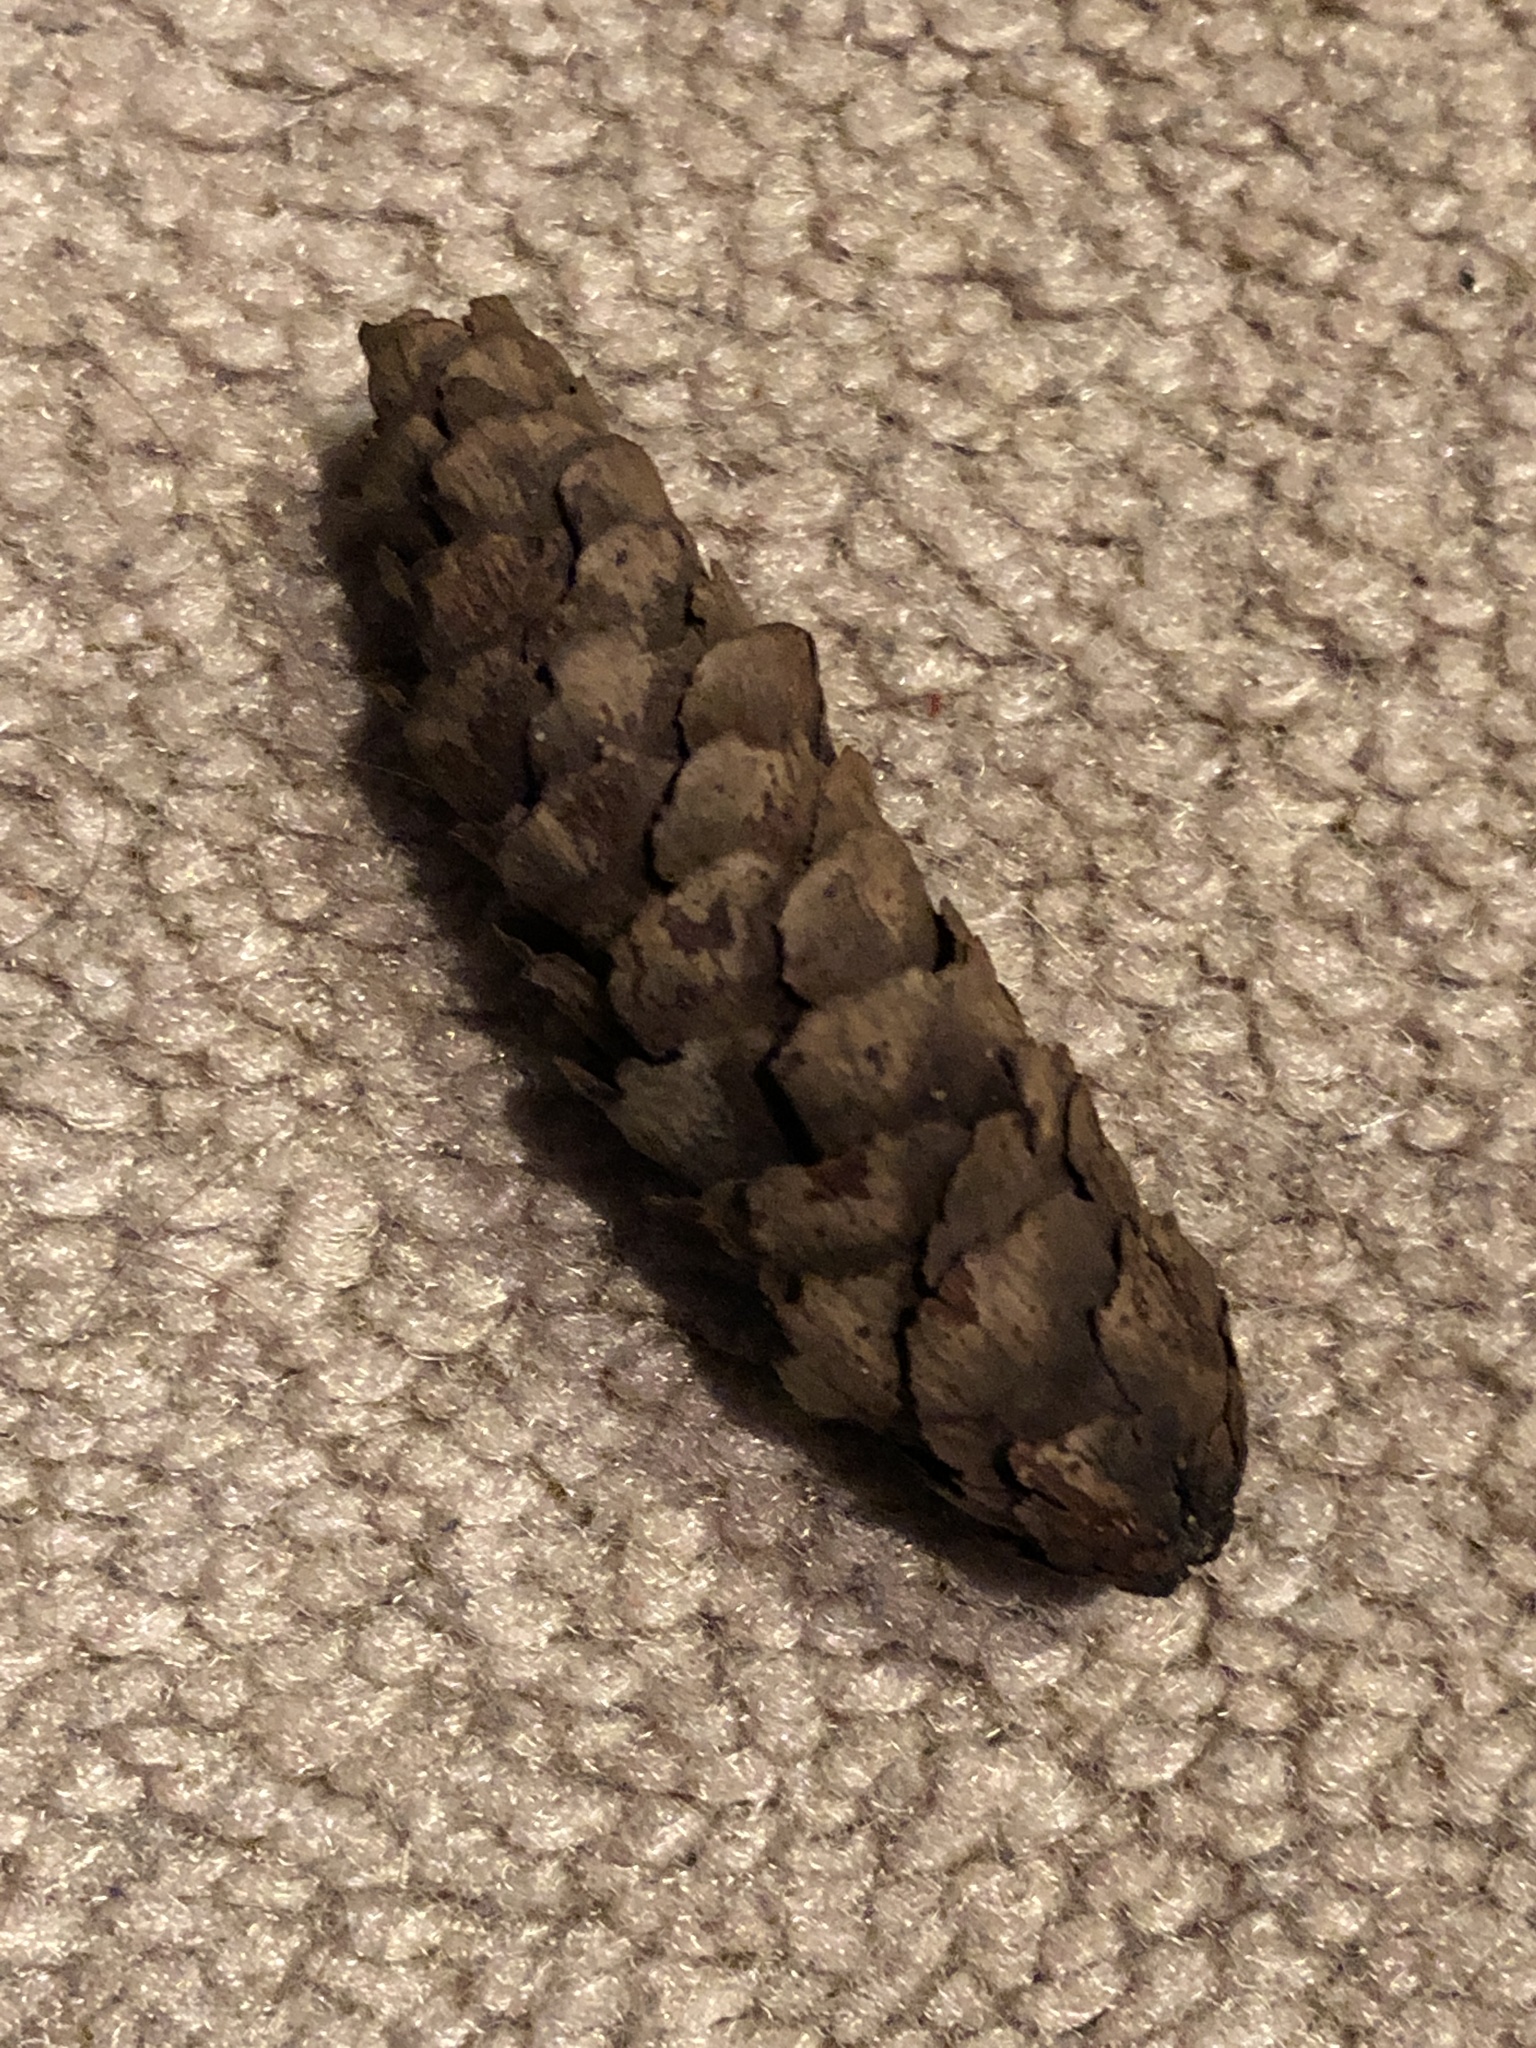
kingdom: Plantae
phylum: Tracheophyta
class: Pinopsida
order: Pinales
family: Pinaceae
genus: Picea
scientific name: Picea glauca
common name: White spruce
